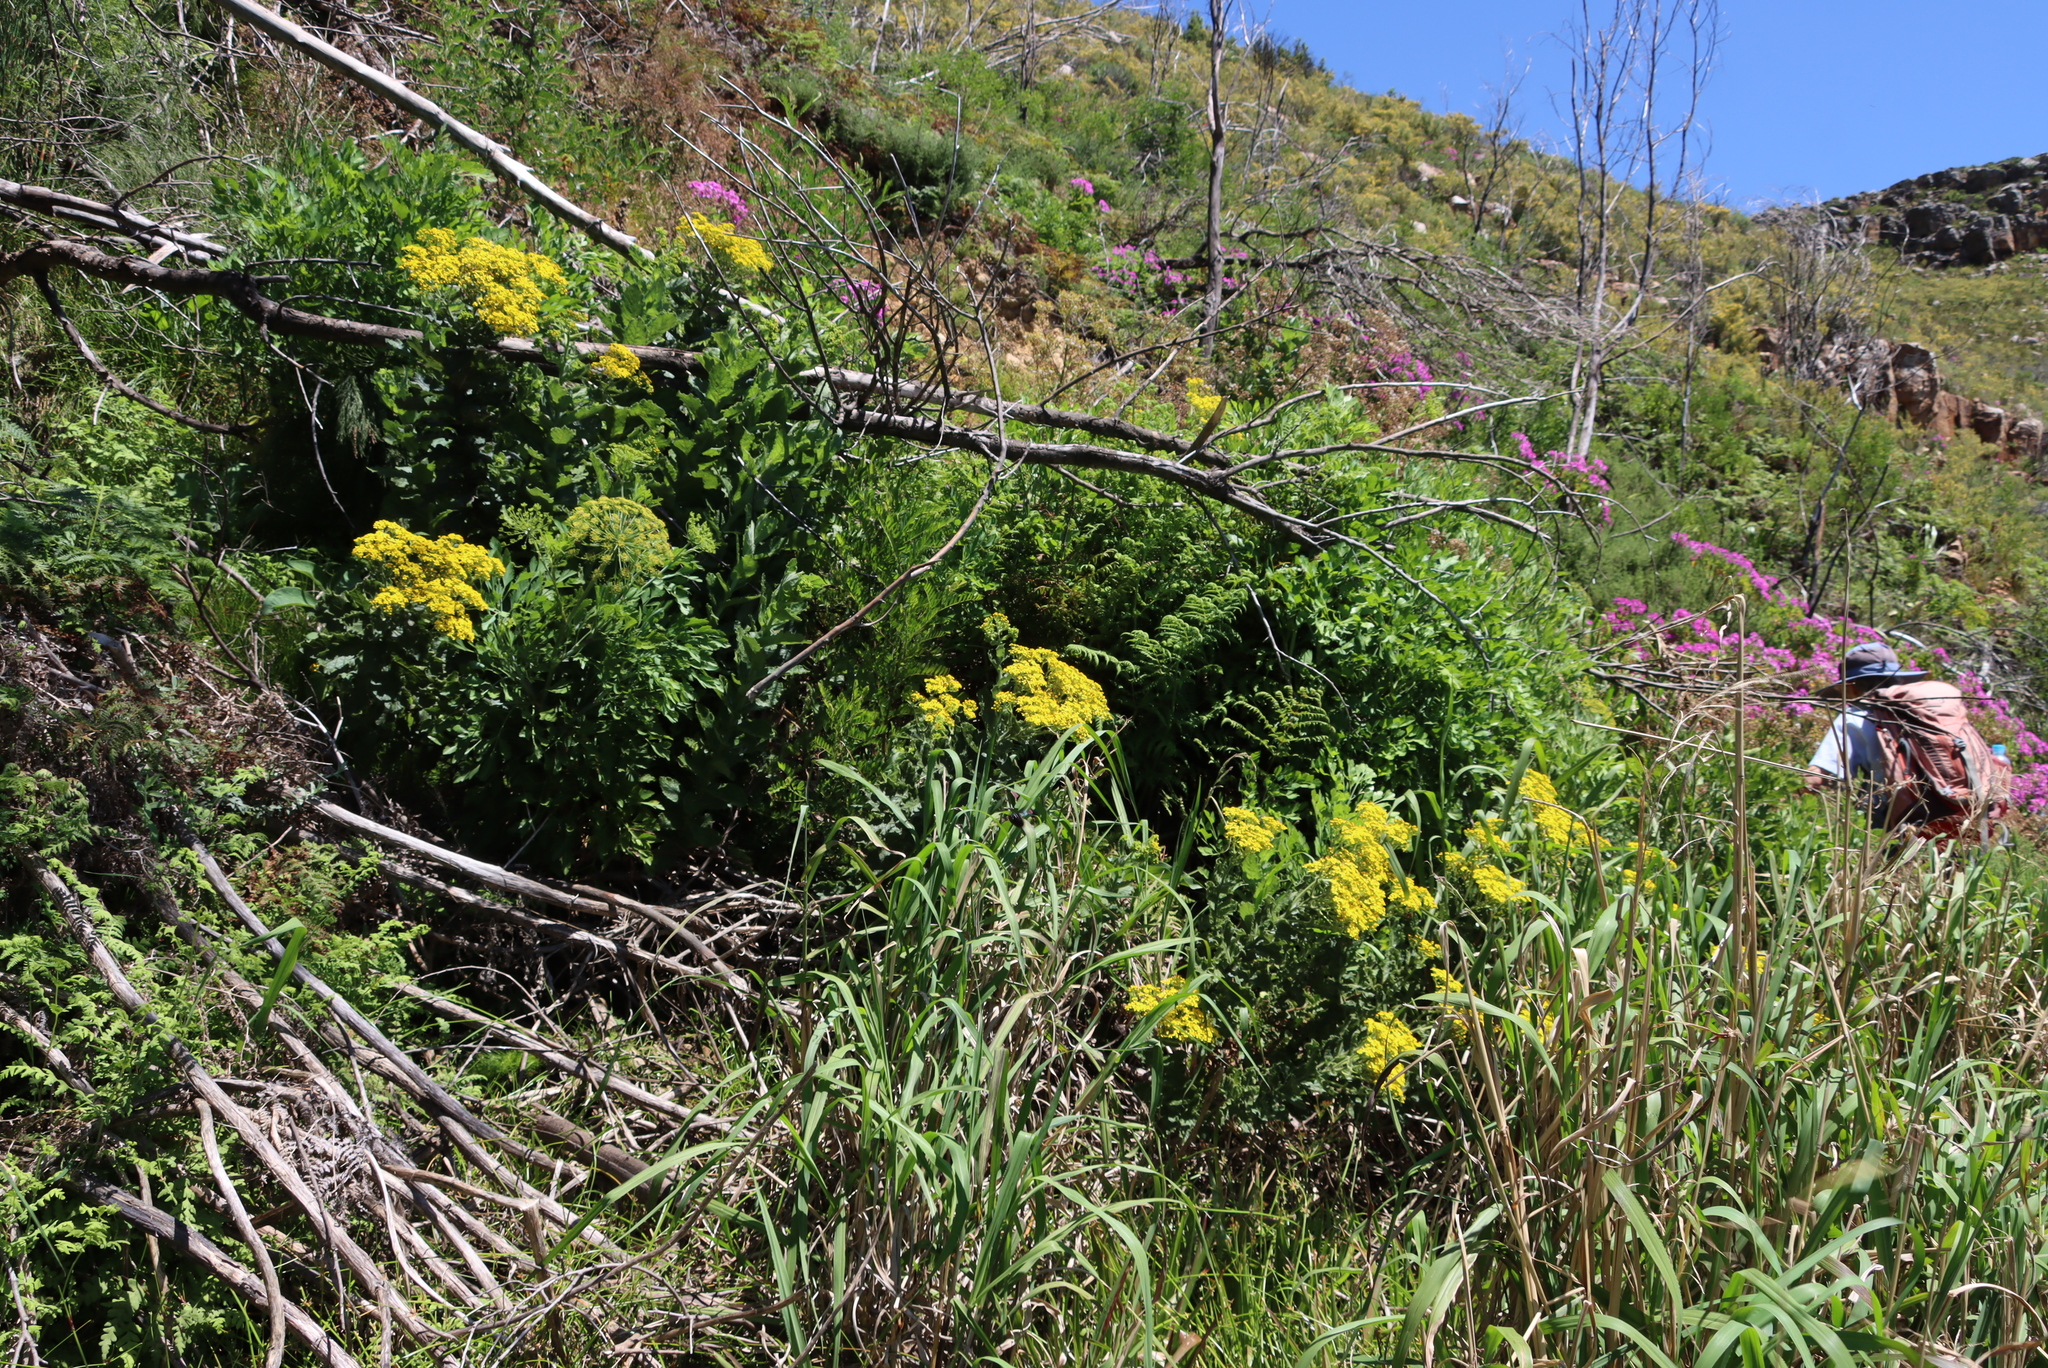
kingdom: Plantae
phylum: Tracheophyta
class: Magnoliopsida
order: Apiales
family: Apiaceae
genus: Notobubon
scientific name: Notobubon galbanum
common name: Blisterbush
